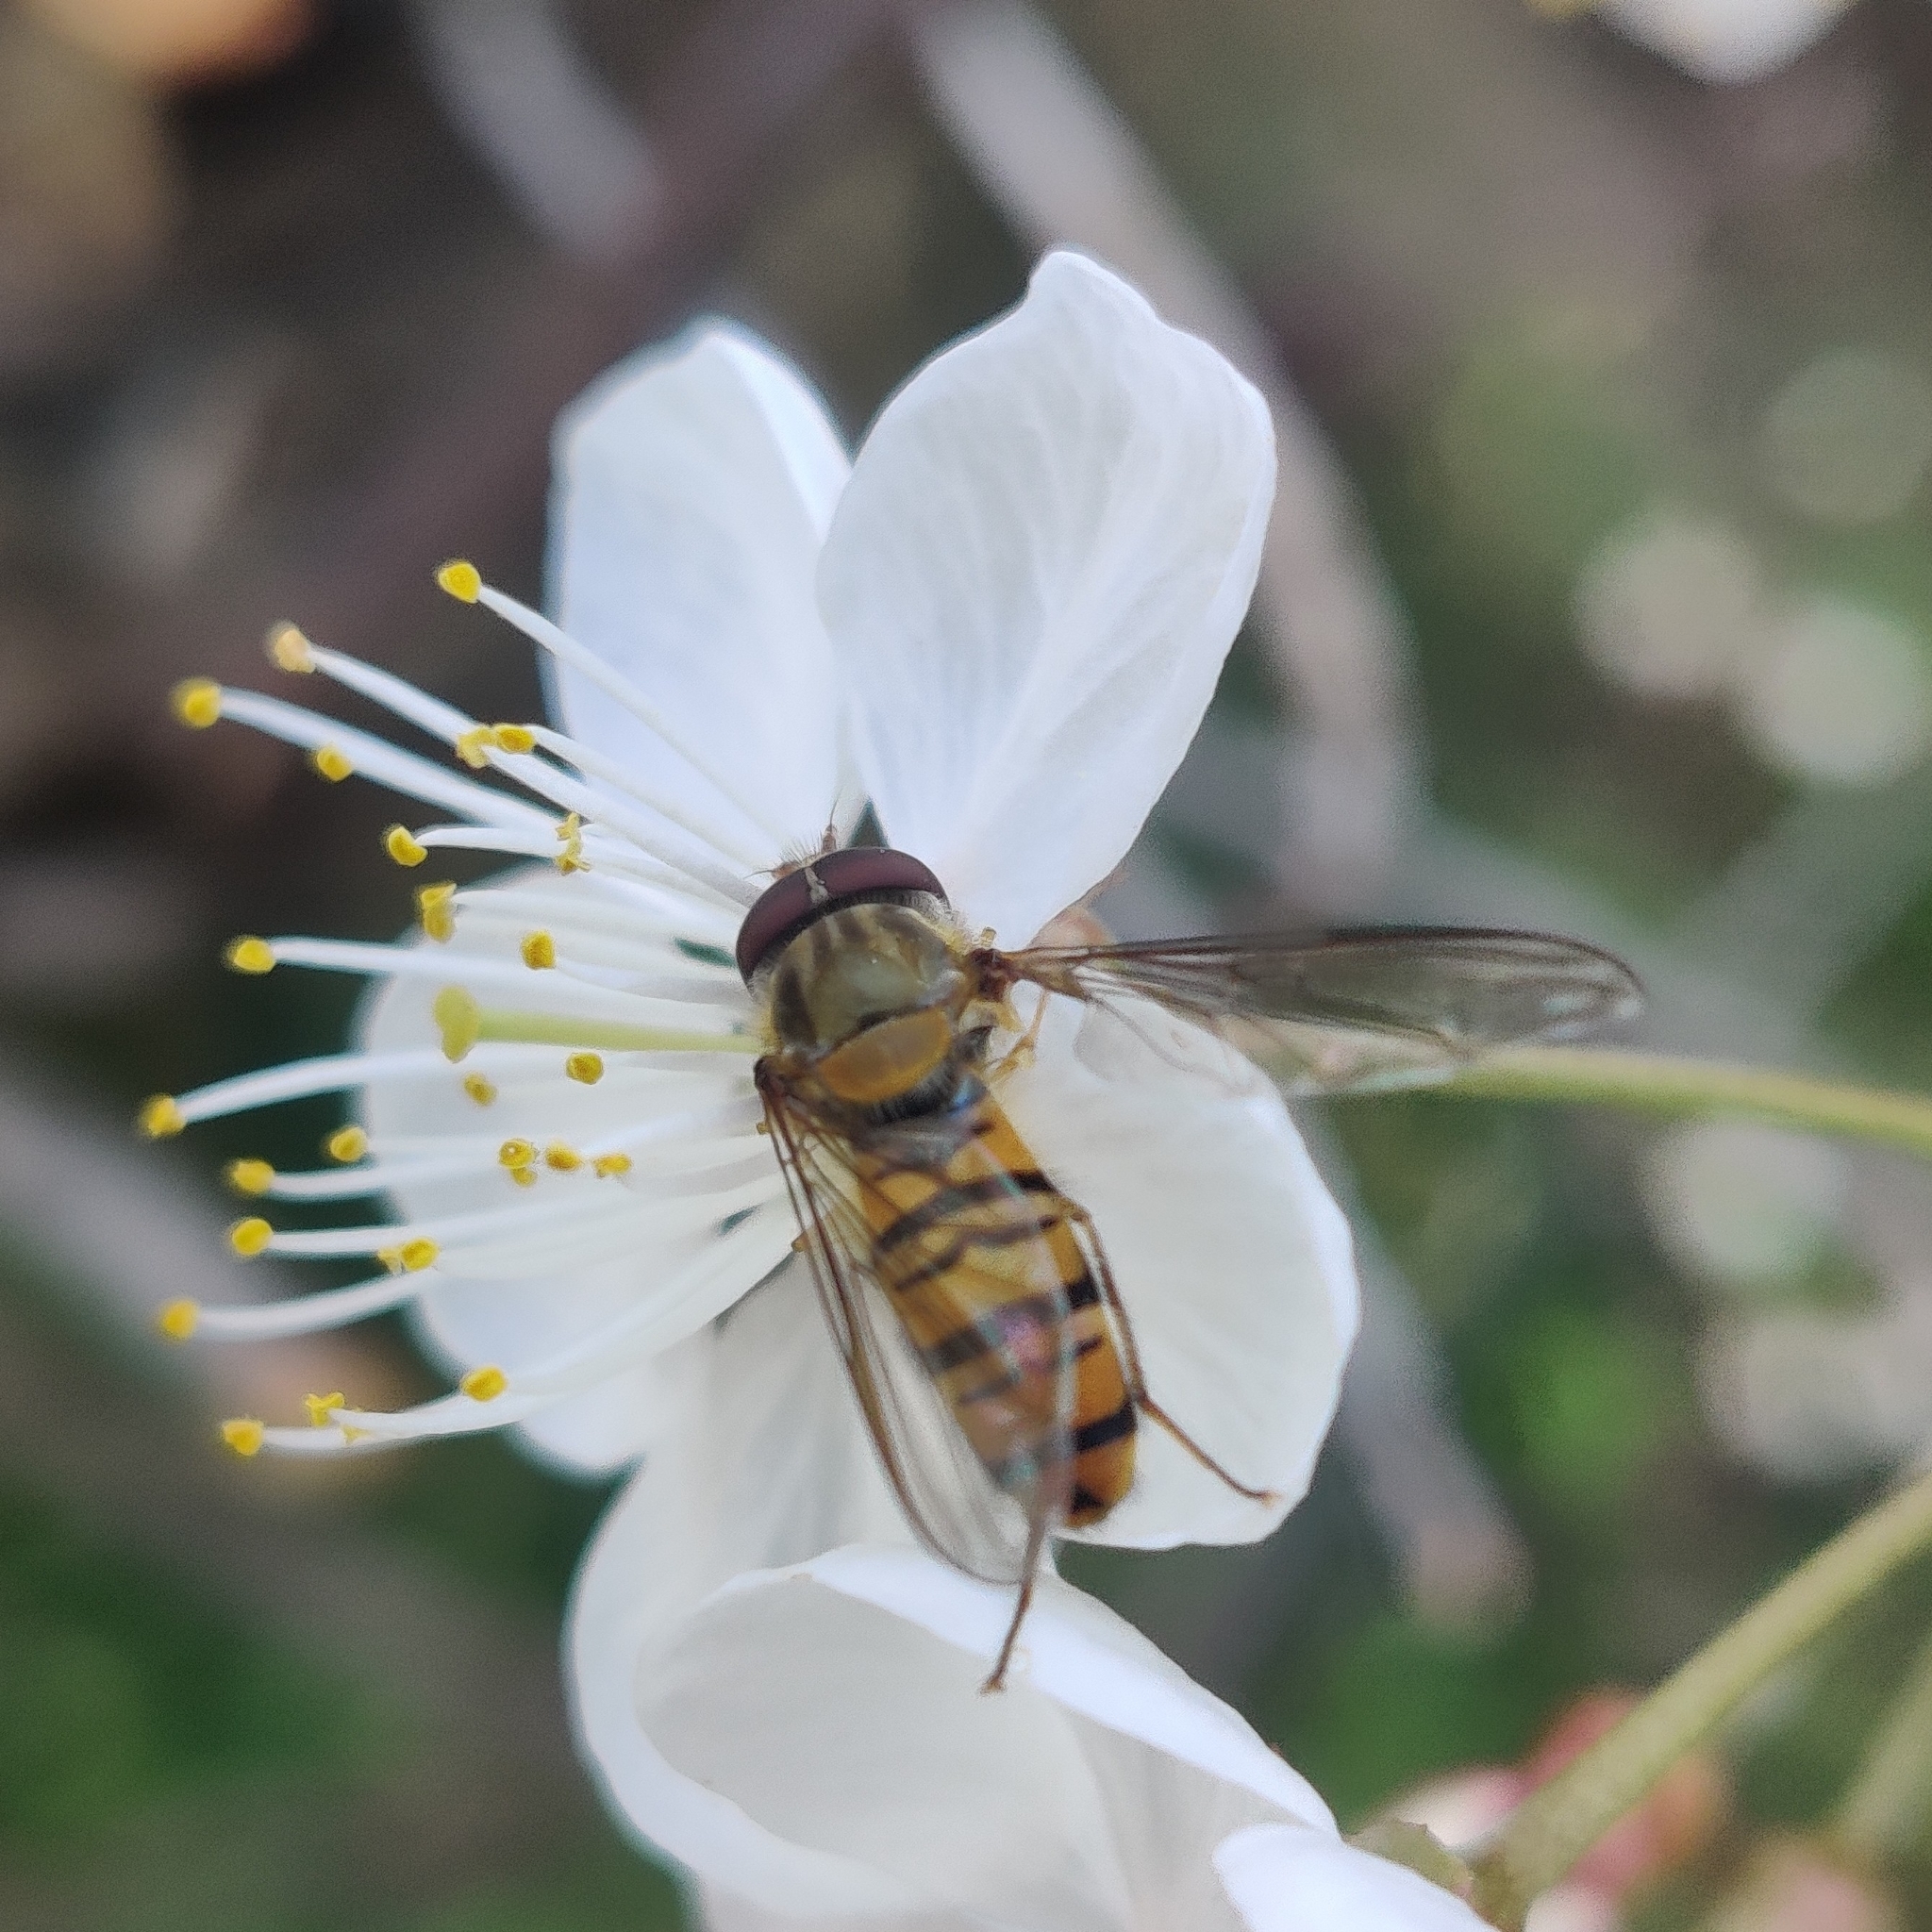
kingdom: Animalia
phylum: Arthropoda
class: Insecta
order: Diptera
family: Syrphidae
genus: Episyrphus
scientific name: Episyrphus balteatus
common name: Marmalade hoverfly
